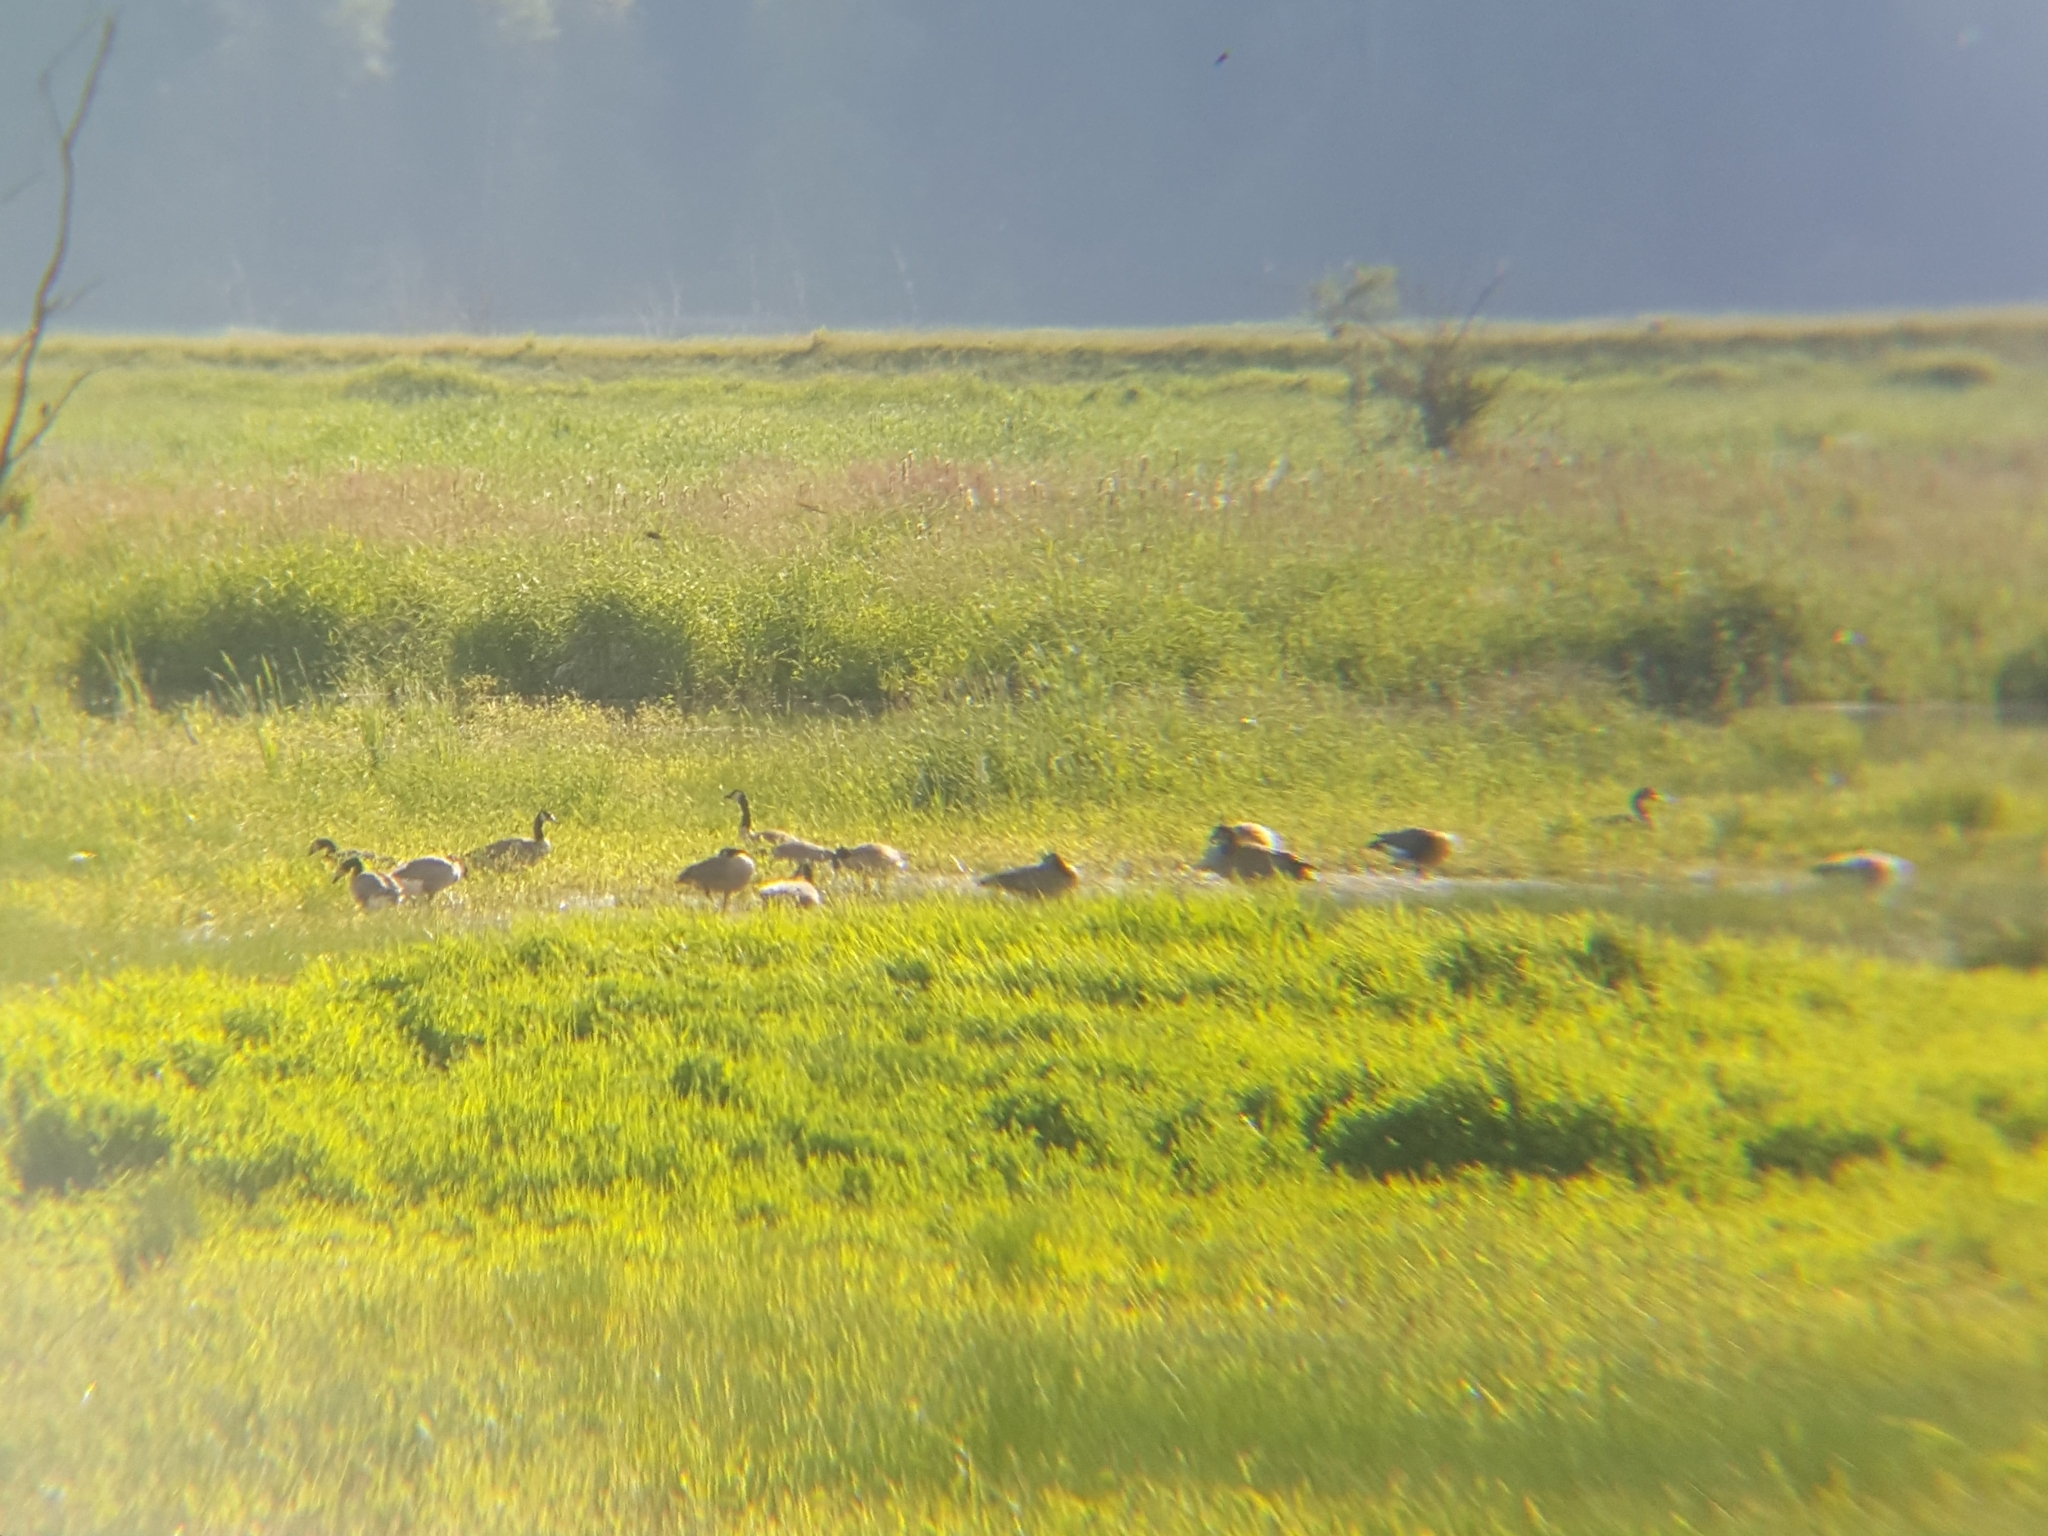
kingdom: Animalia
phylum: Chordata
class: Aves
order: Anseriformes
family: Anatidae
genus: Branta
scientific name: Branta canadensis
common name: Canada goose
